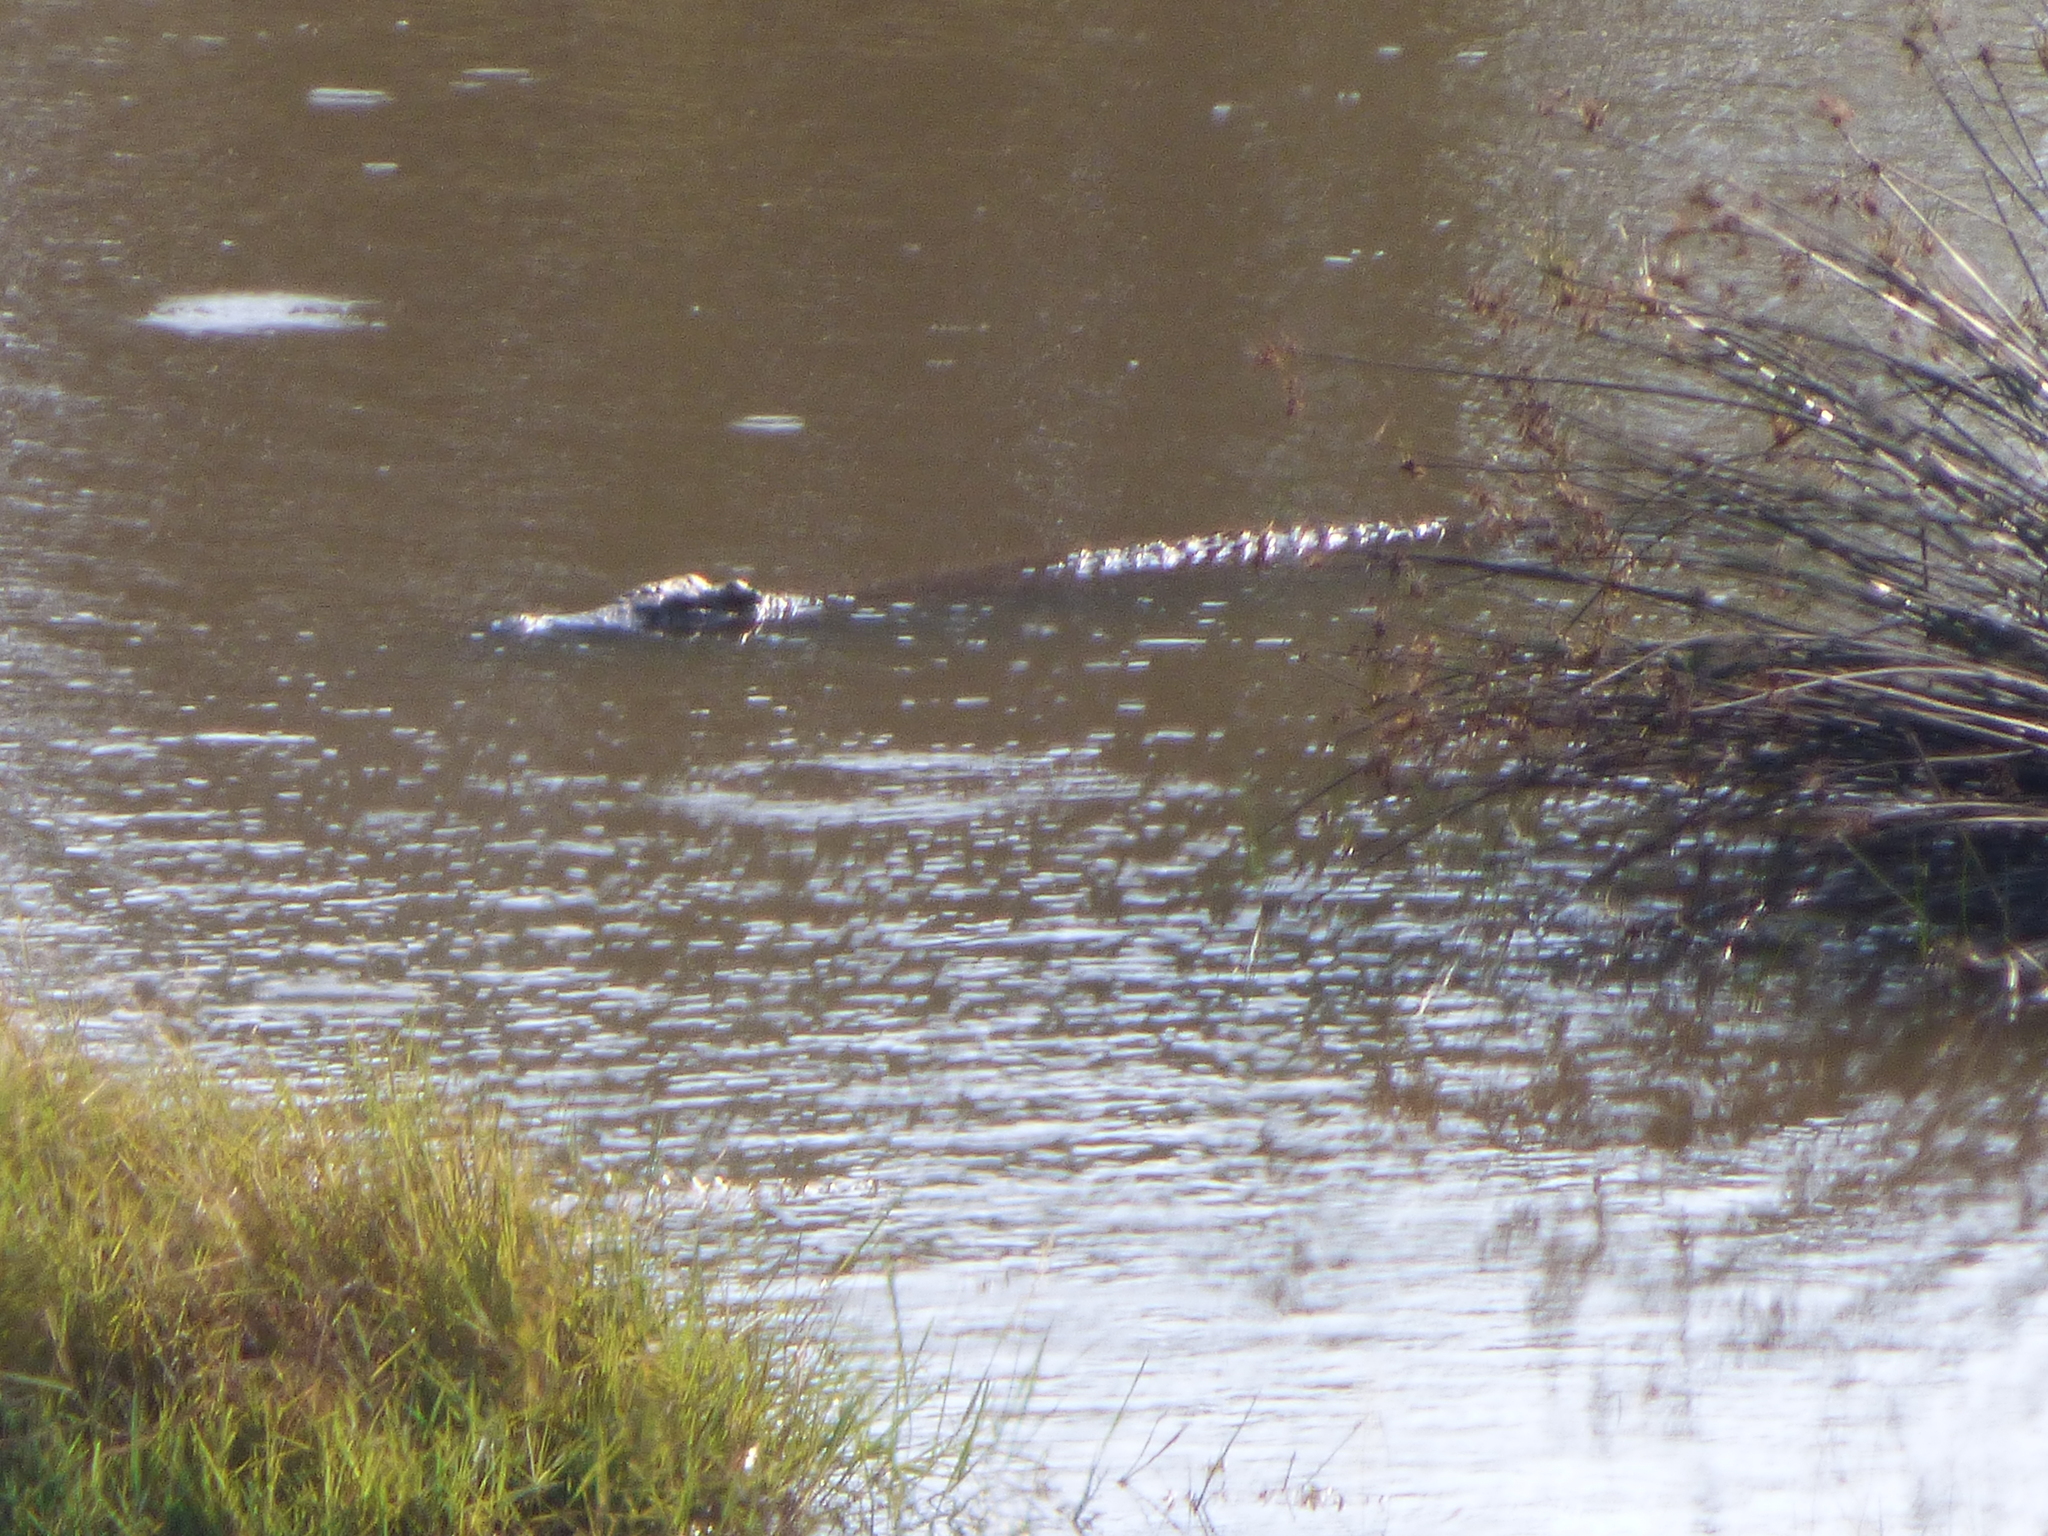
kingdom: Animalia
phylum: Chordata
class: Crocodylia
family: Crocodylidae
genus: Crocodylus
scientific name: Crocodylus niloticus
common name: Nile crocodile
